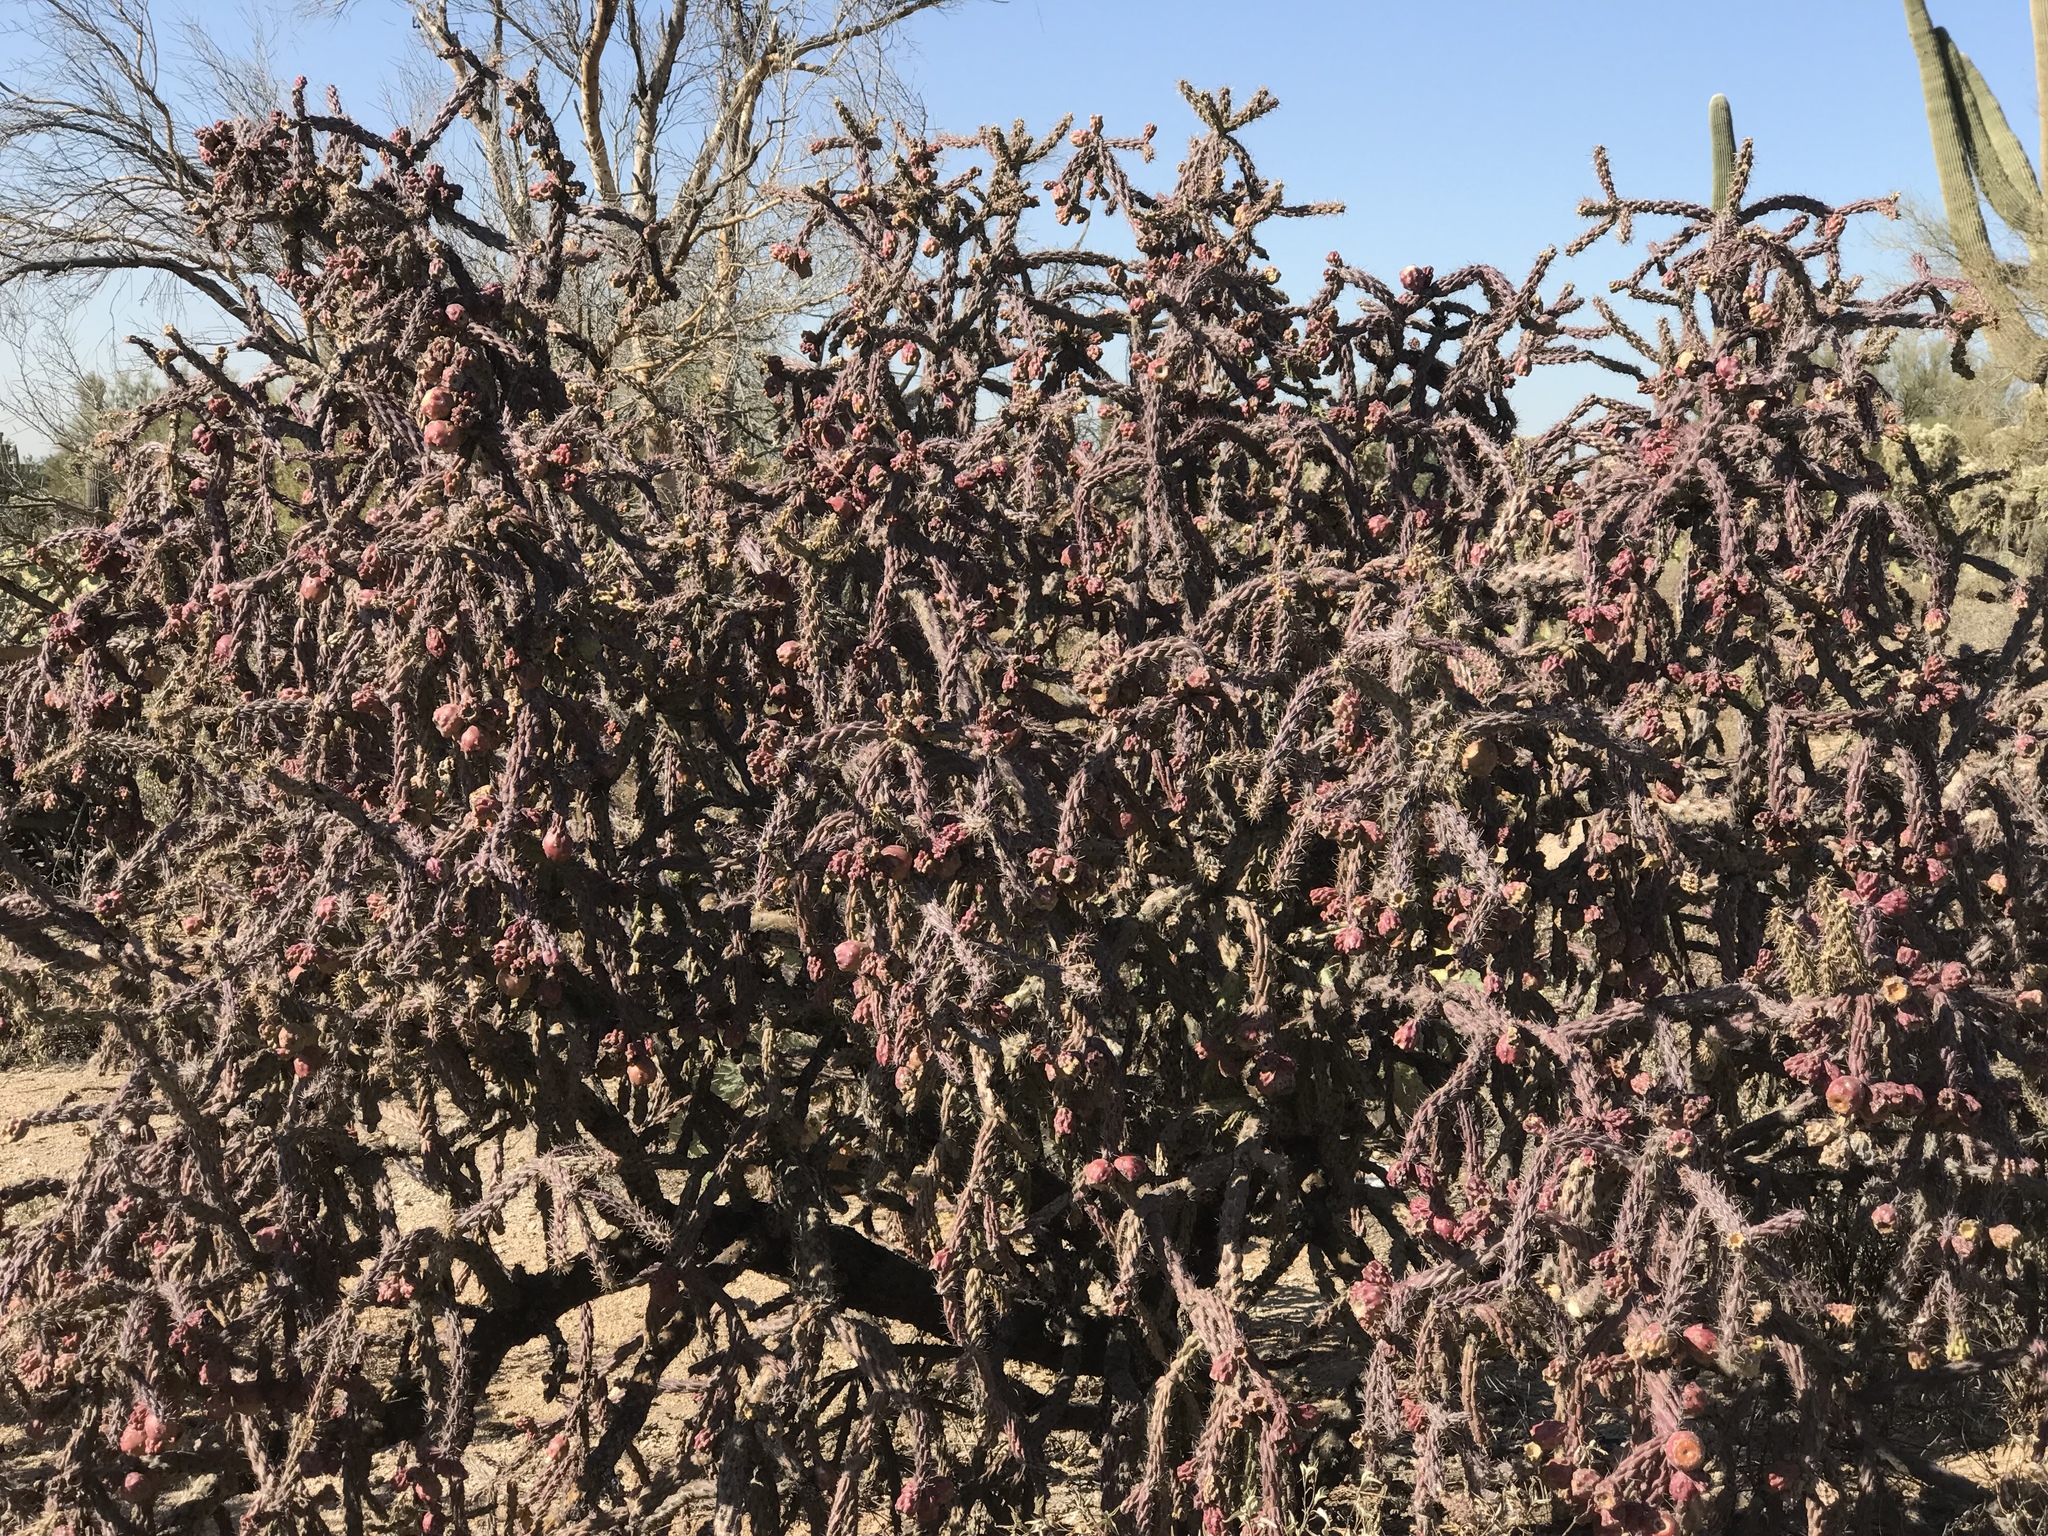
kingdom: Plantae
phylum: Tracheophyta
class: Magnoliopsida
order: Caryophyllales
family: Cactaceae
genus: Cylindropuntia
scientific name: Cylindropuntia thurberi
